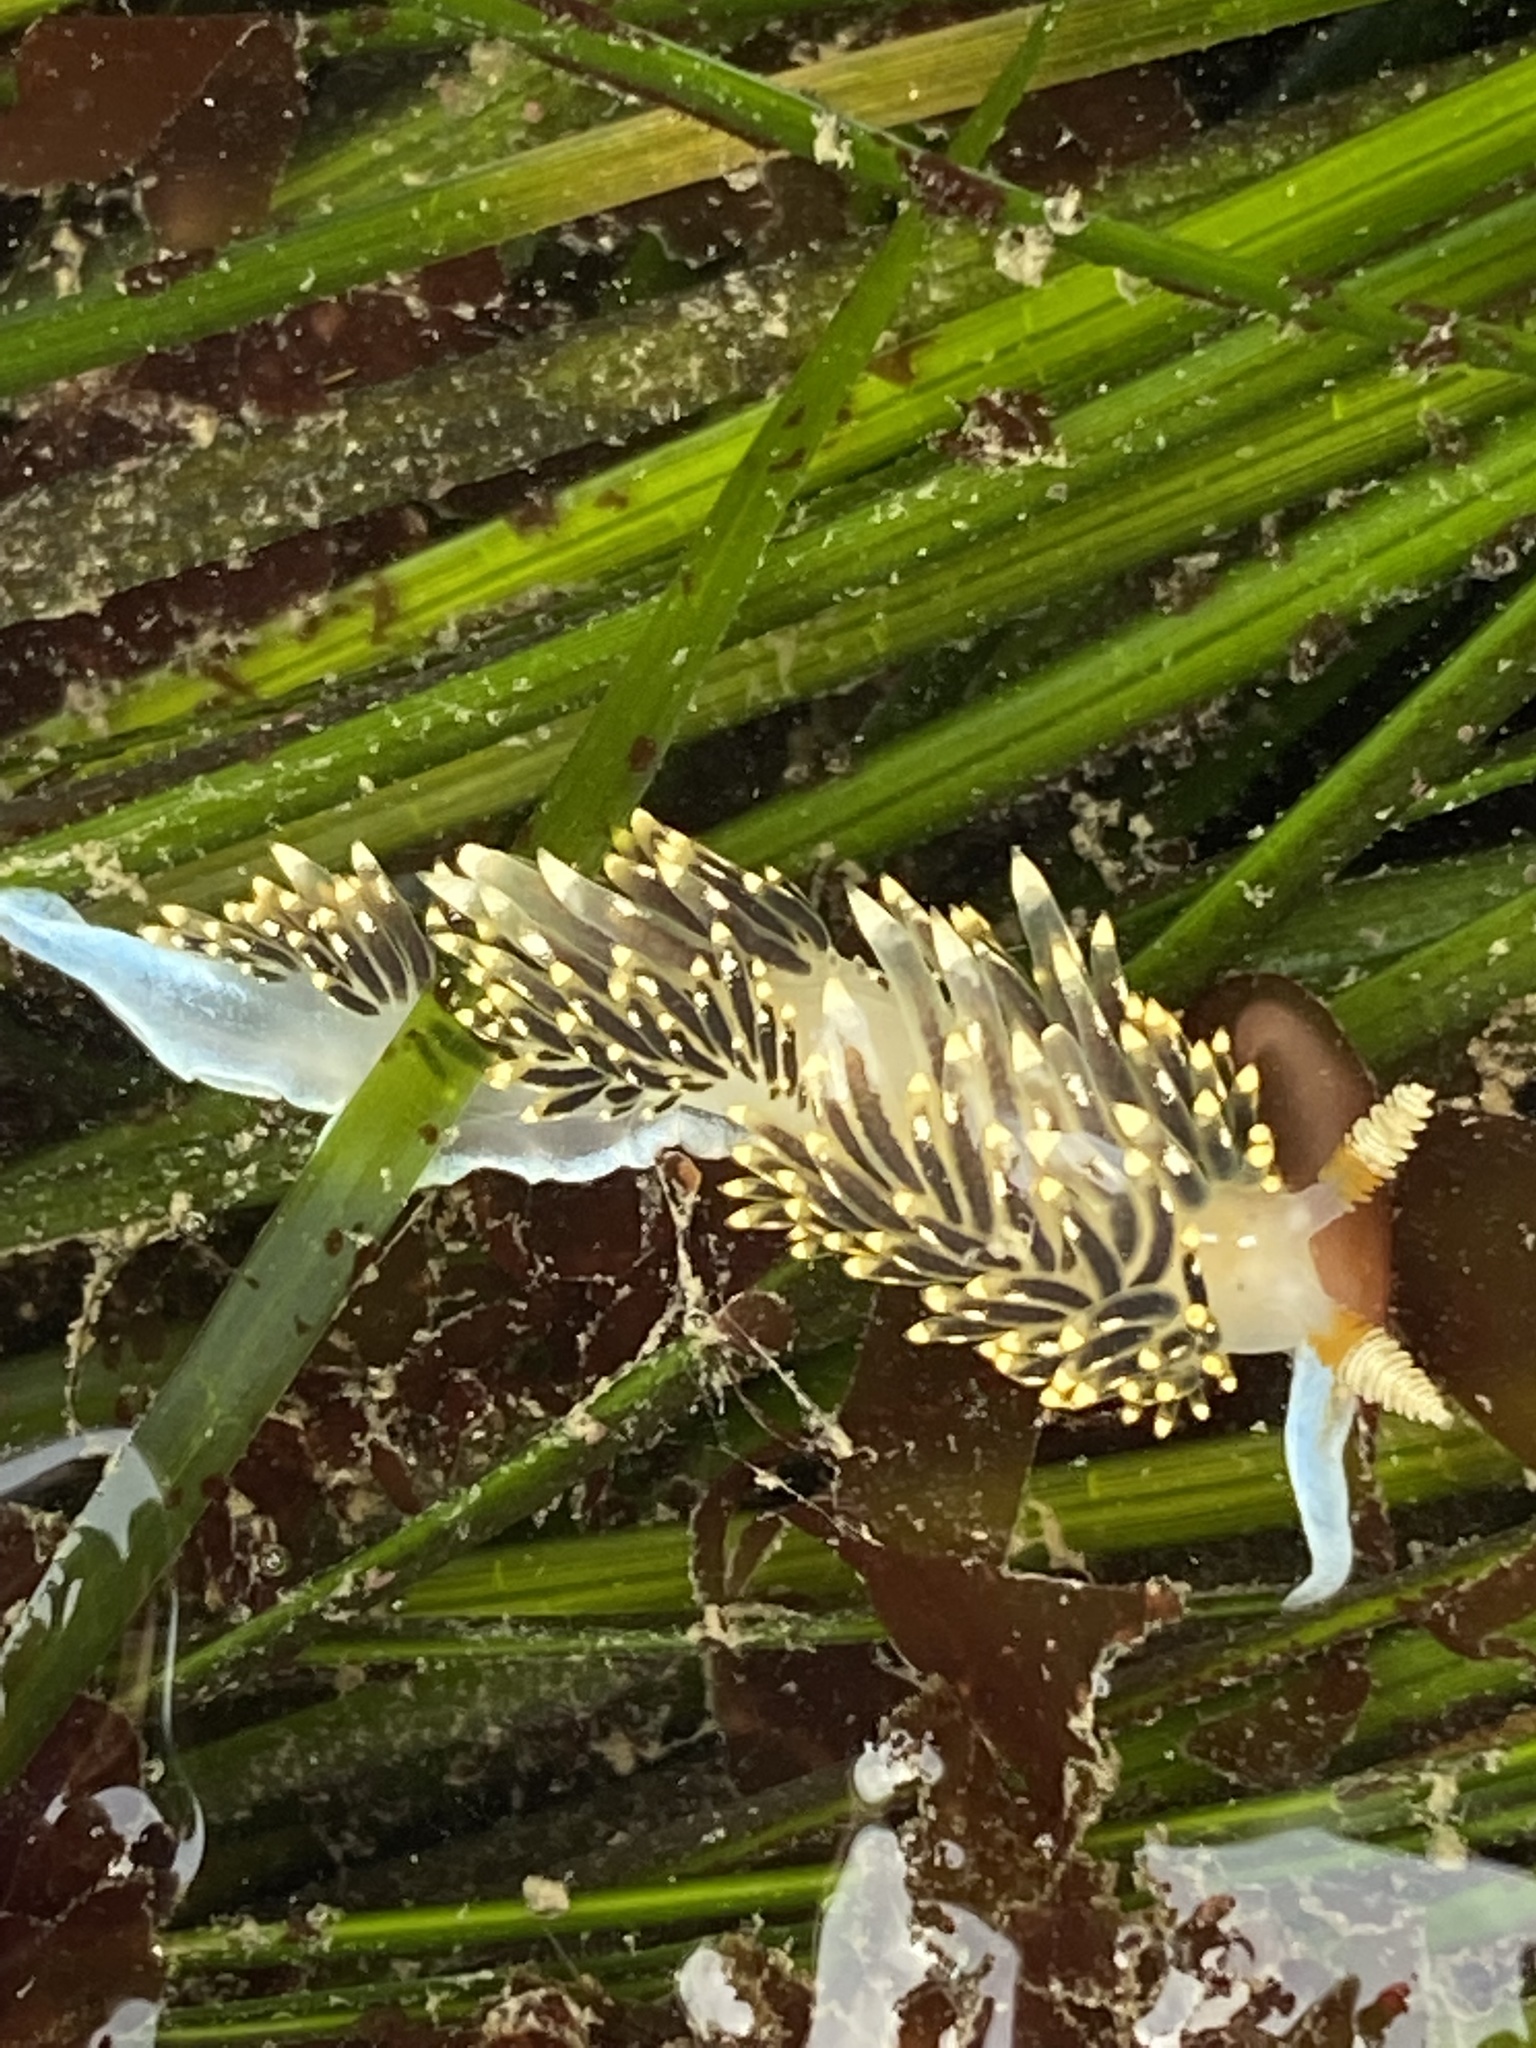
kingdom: Animalia
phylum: Mollusca
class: Gastropoda
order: Nudibranchia
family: Facelinidae
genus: Phidiana
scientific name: Phidiana hiltoni
